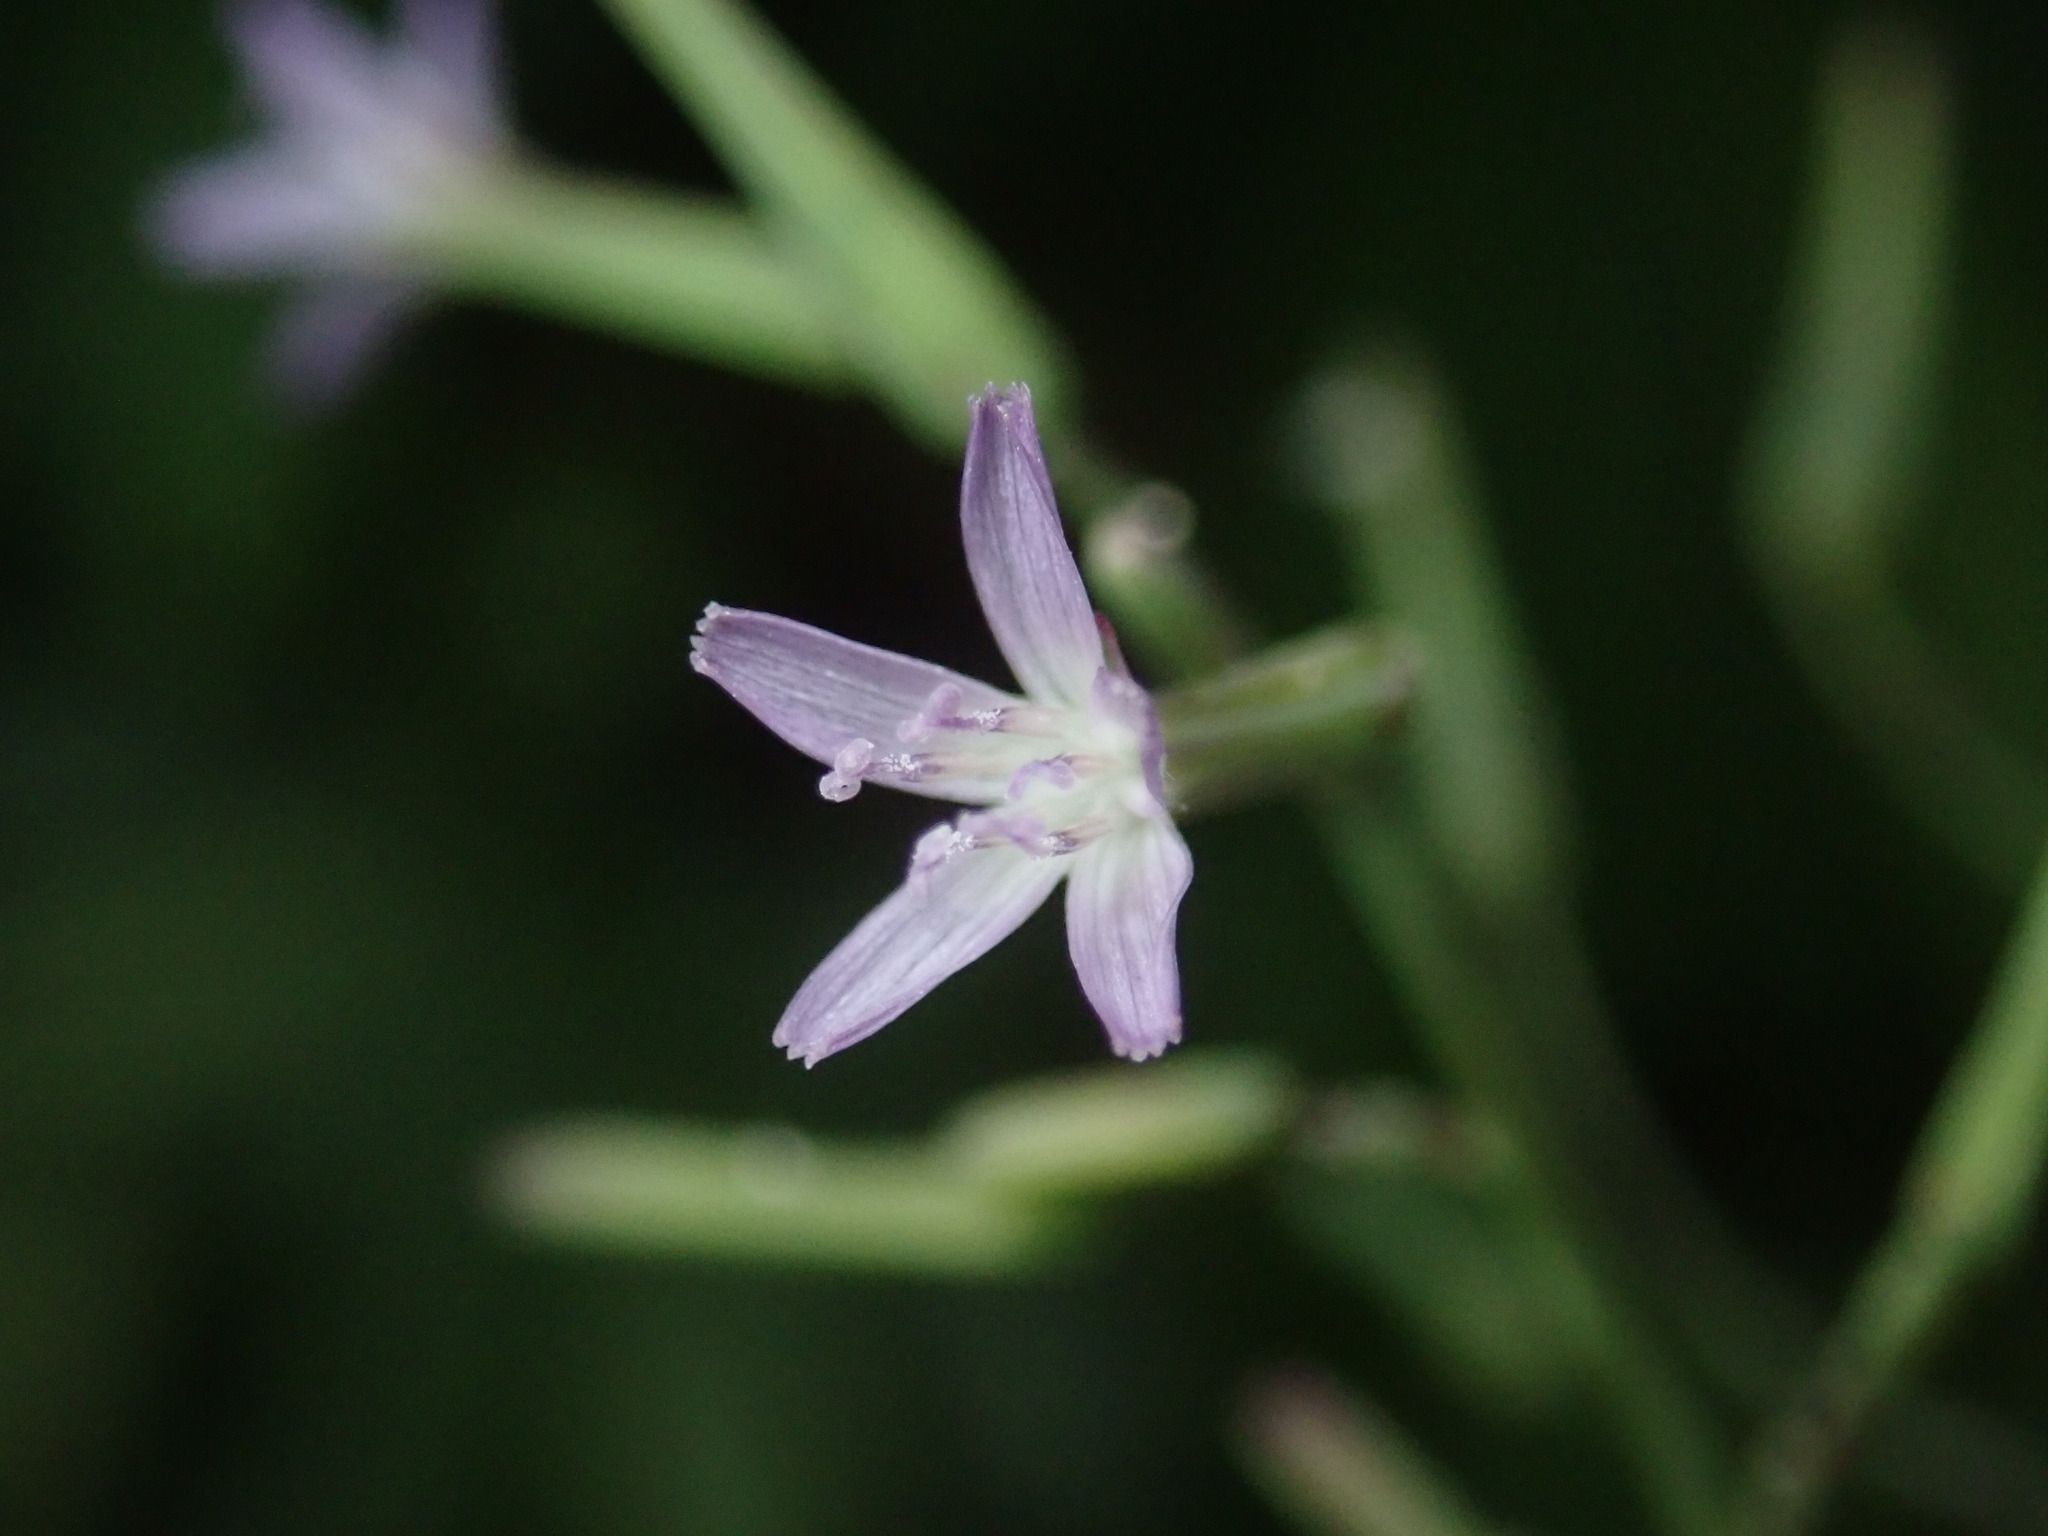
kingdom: Plantae
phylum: Tracheophyta
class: Magnoliopsida
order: Asterales
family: Asteraceae
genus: Paraprenanthes
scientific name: Paraprenanthes sororia
